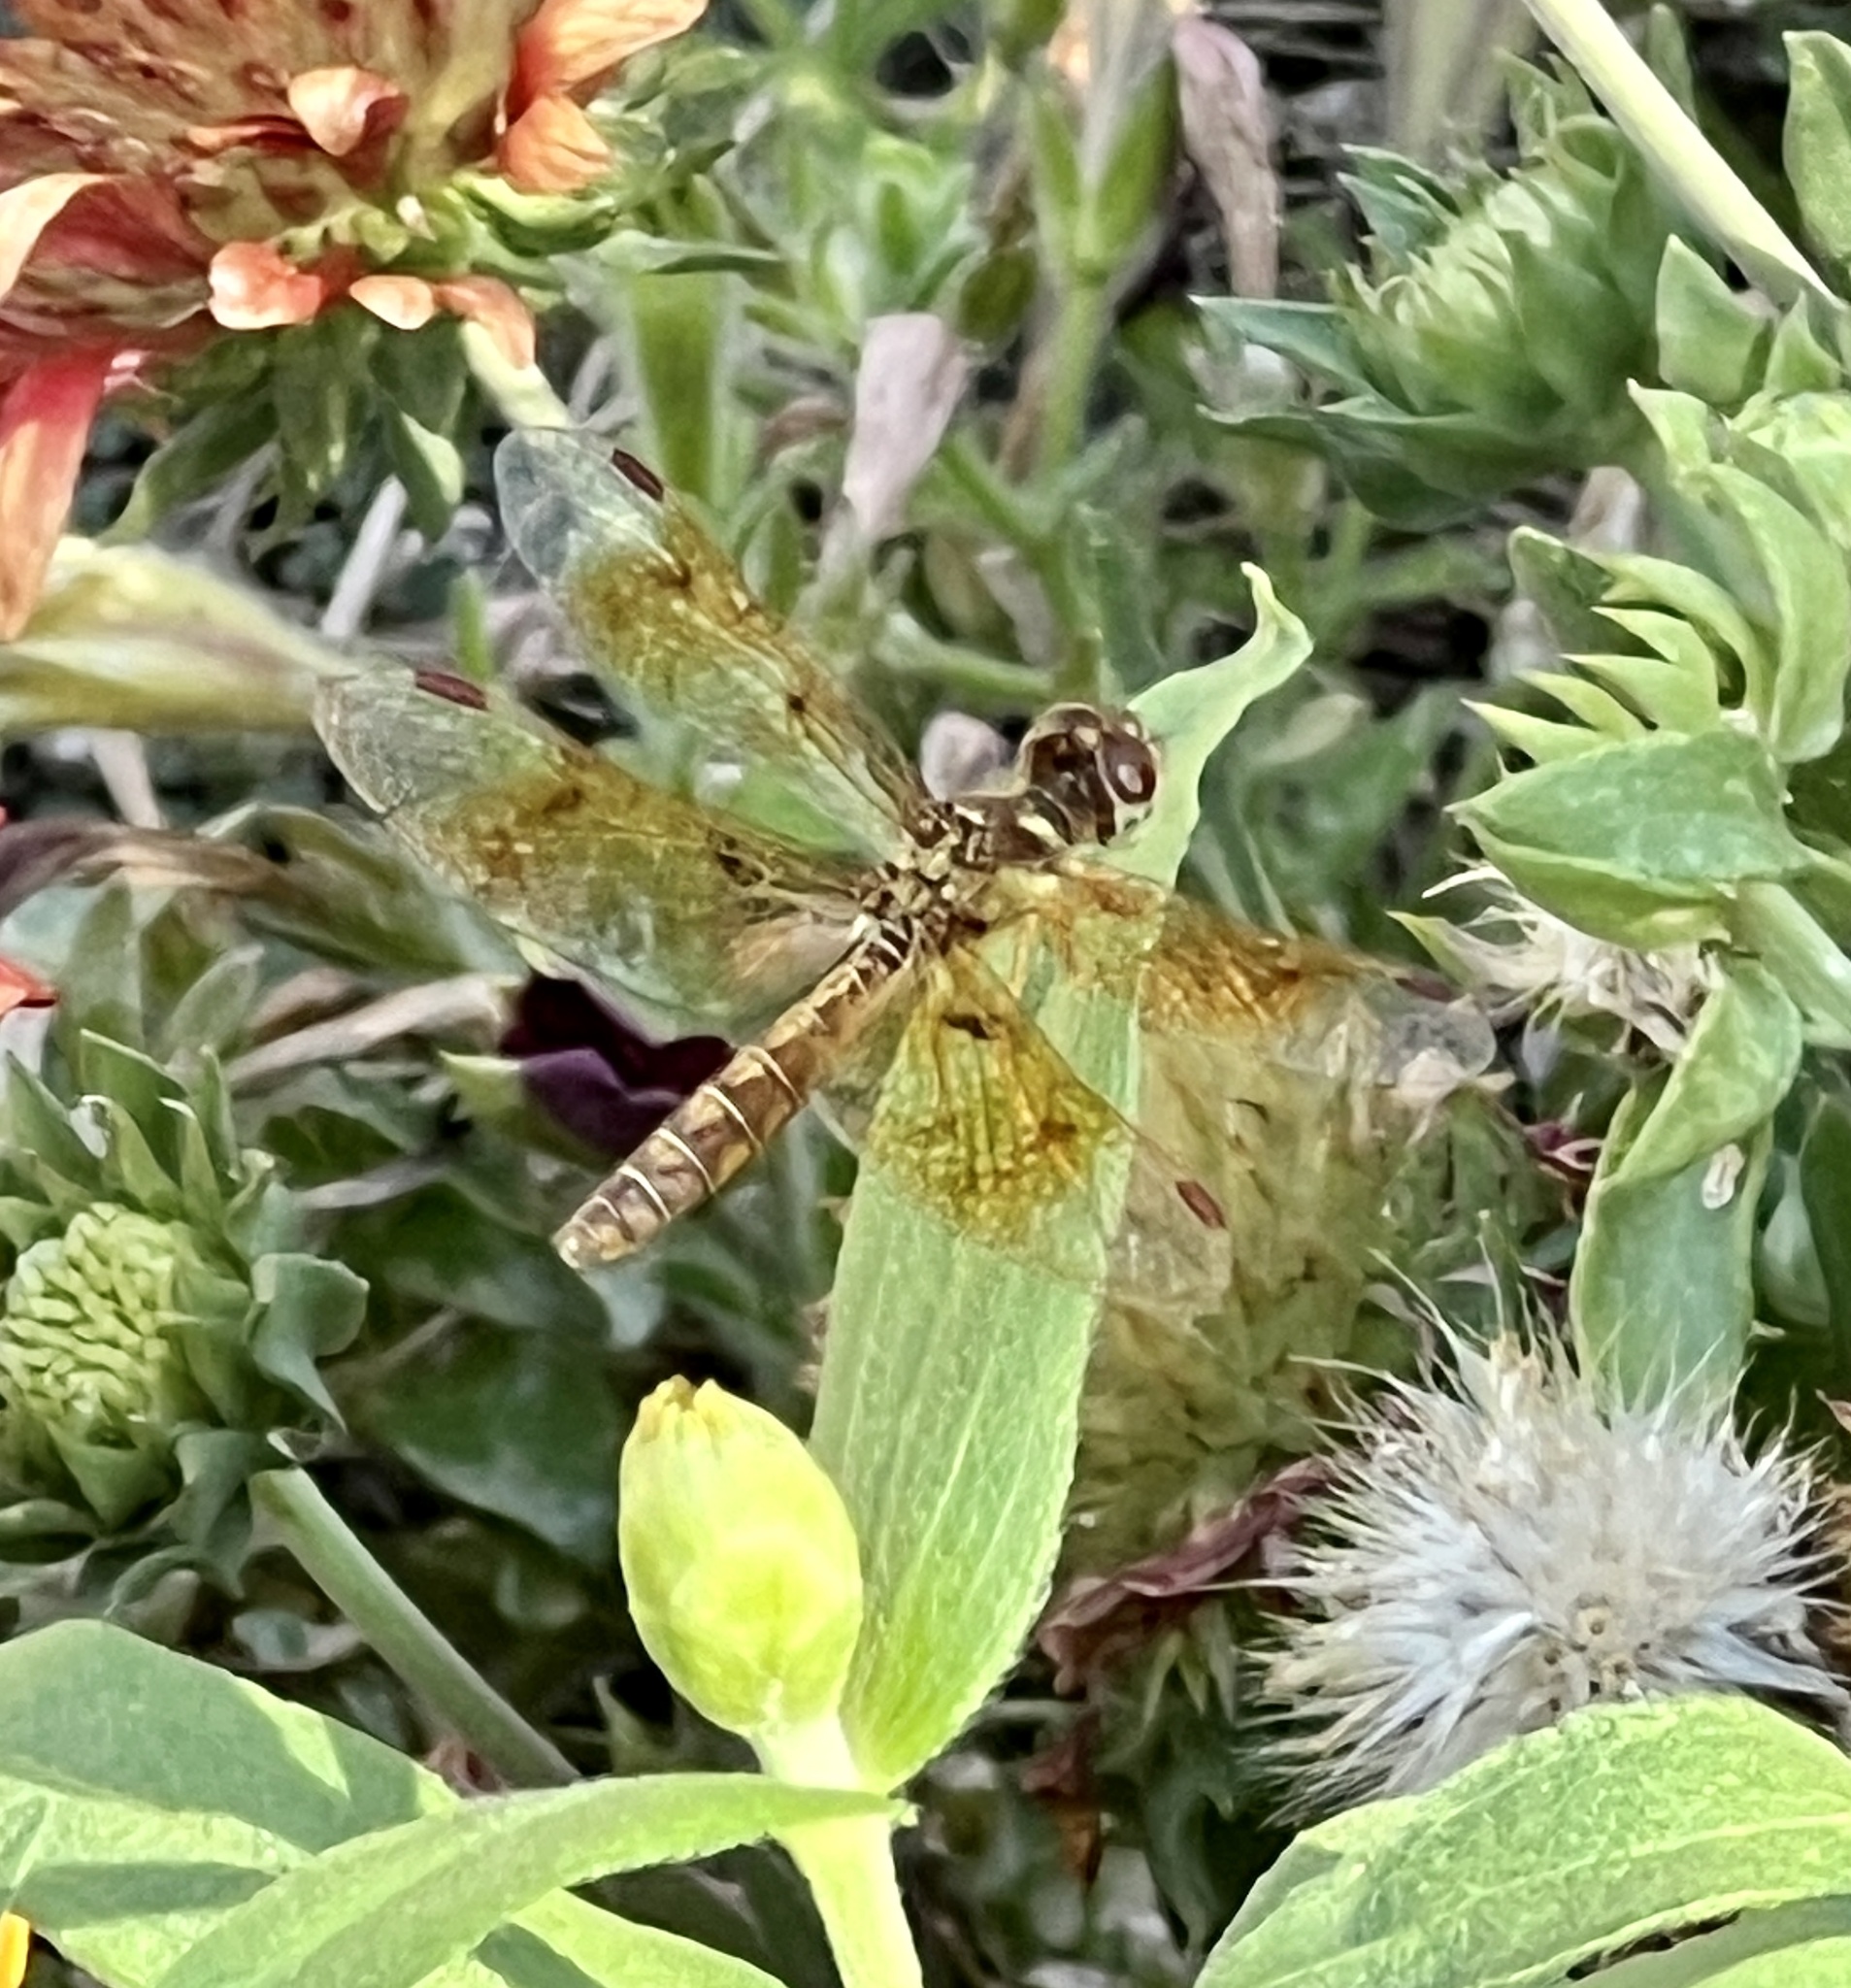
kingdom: Animalia
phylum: Arthropoda
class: Insecta
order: Odonata
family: Libellulidae
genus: Perithemis
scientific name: Perithemis tenera
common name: Eastern amberwing
